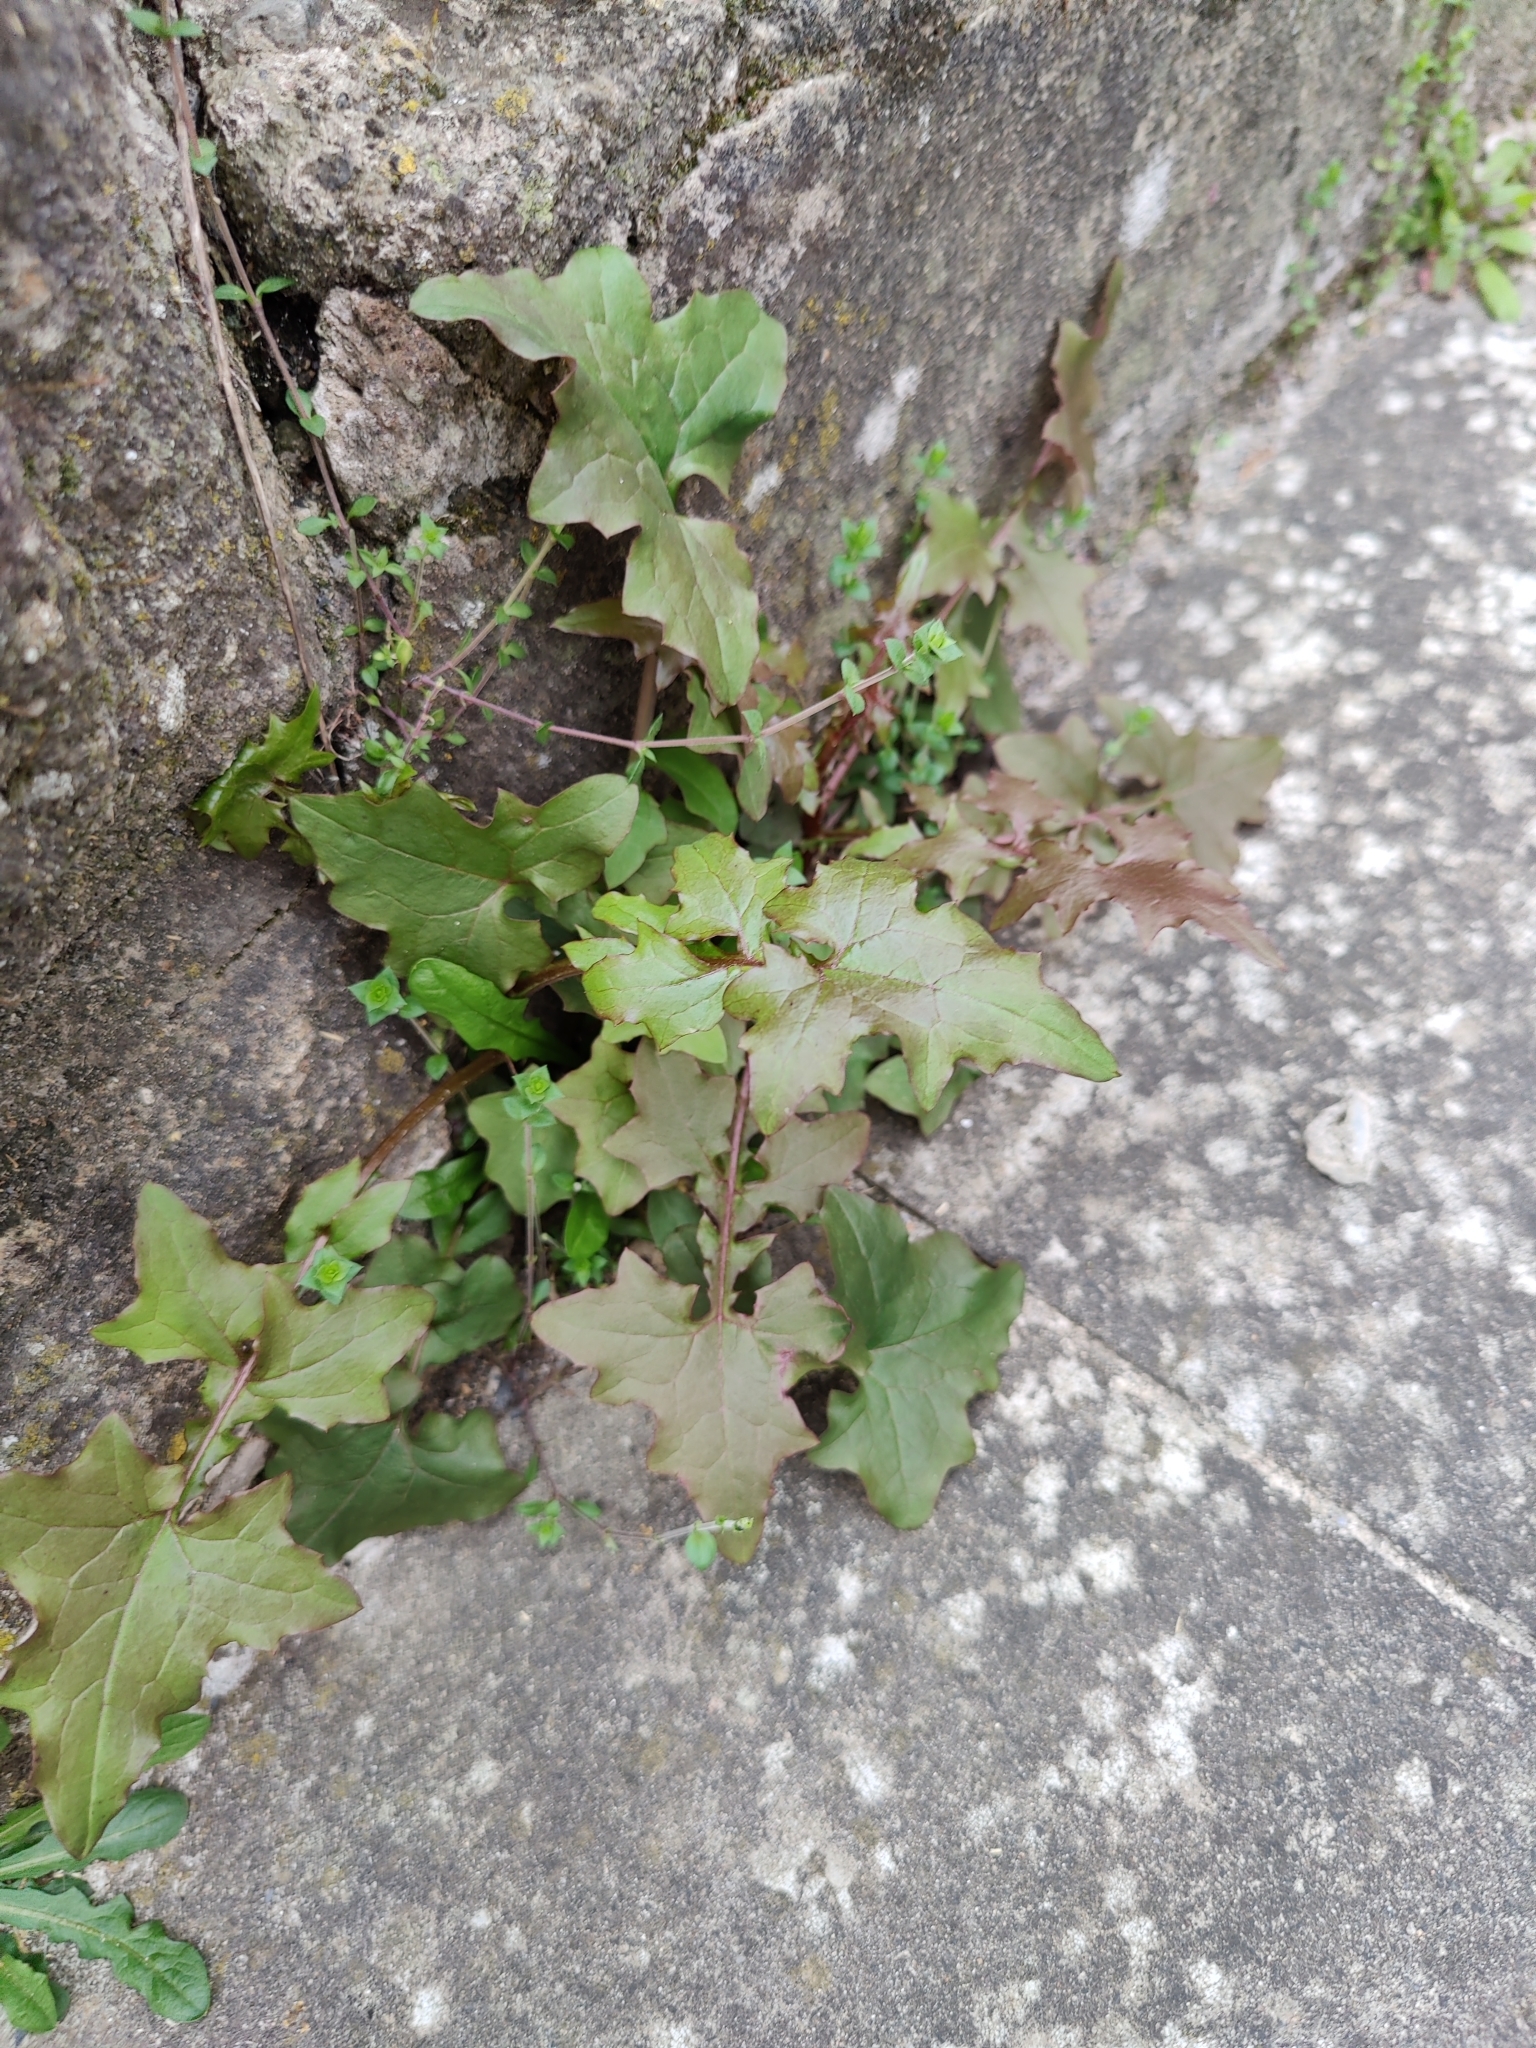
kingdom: Plantae
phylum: Tracheophyta
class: Magnoliopsida
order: Asterales
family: Asteraceae
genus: Mycelis
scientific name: Mycelis muralis
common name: Wall lettuce
